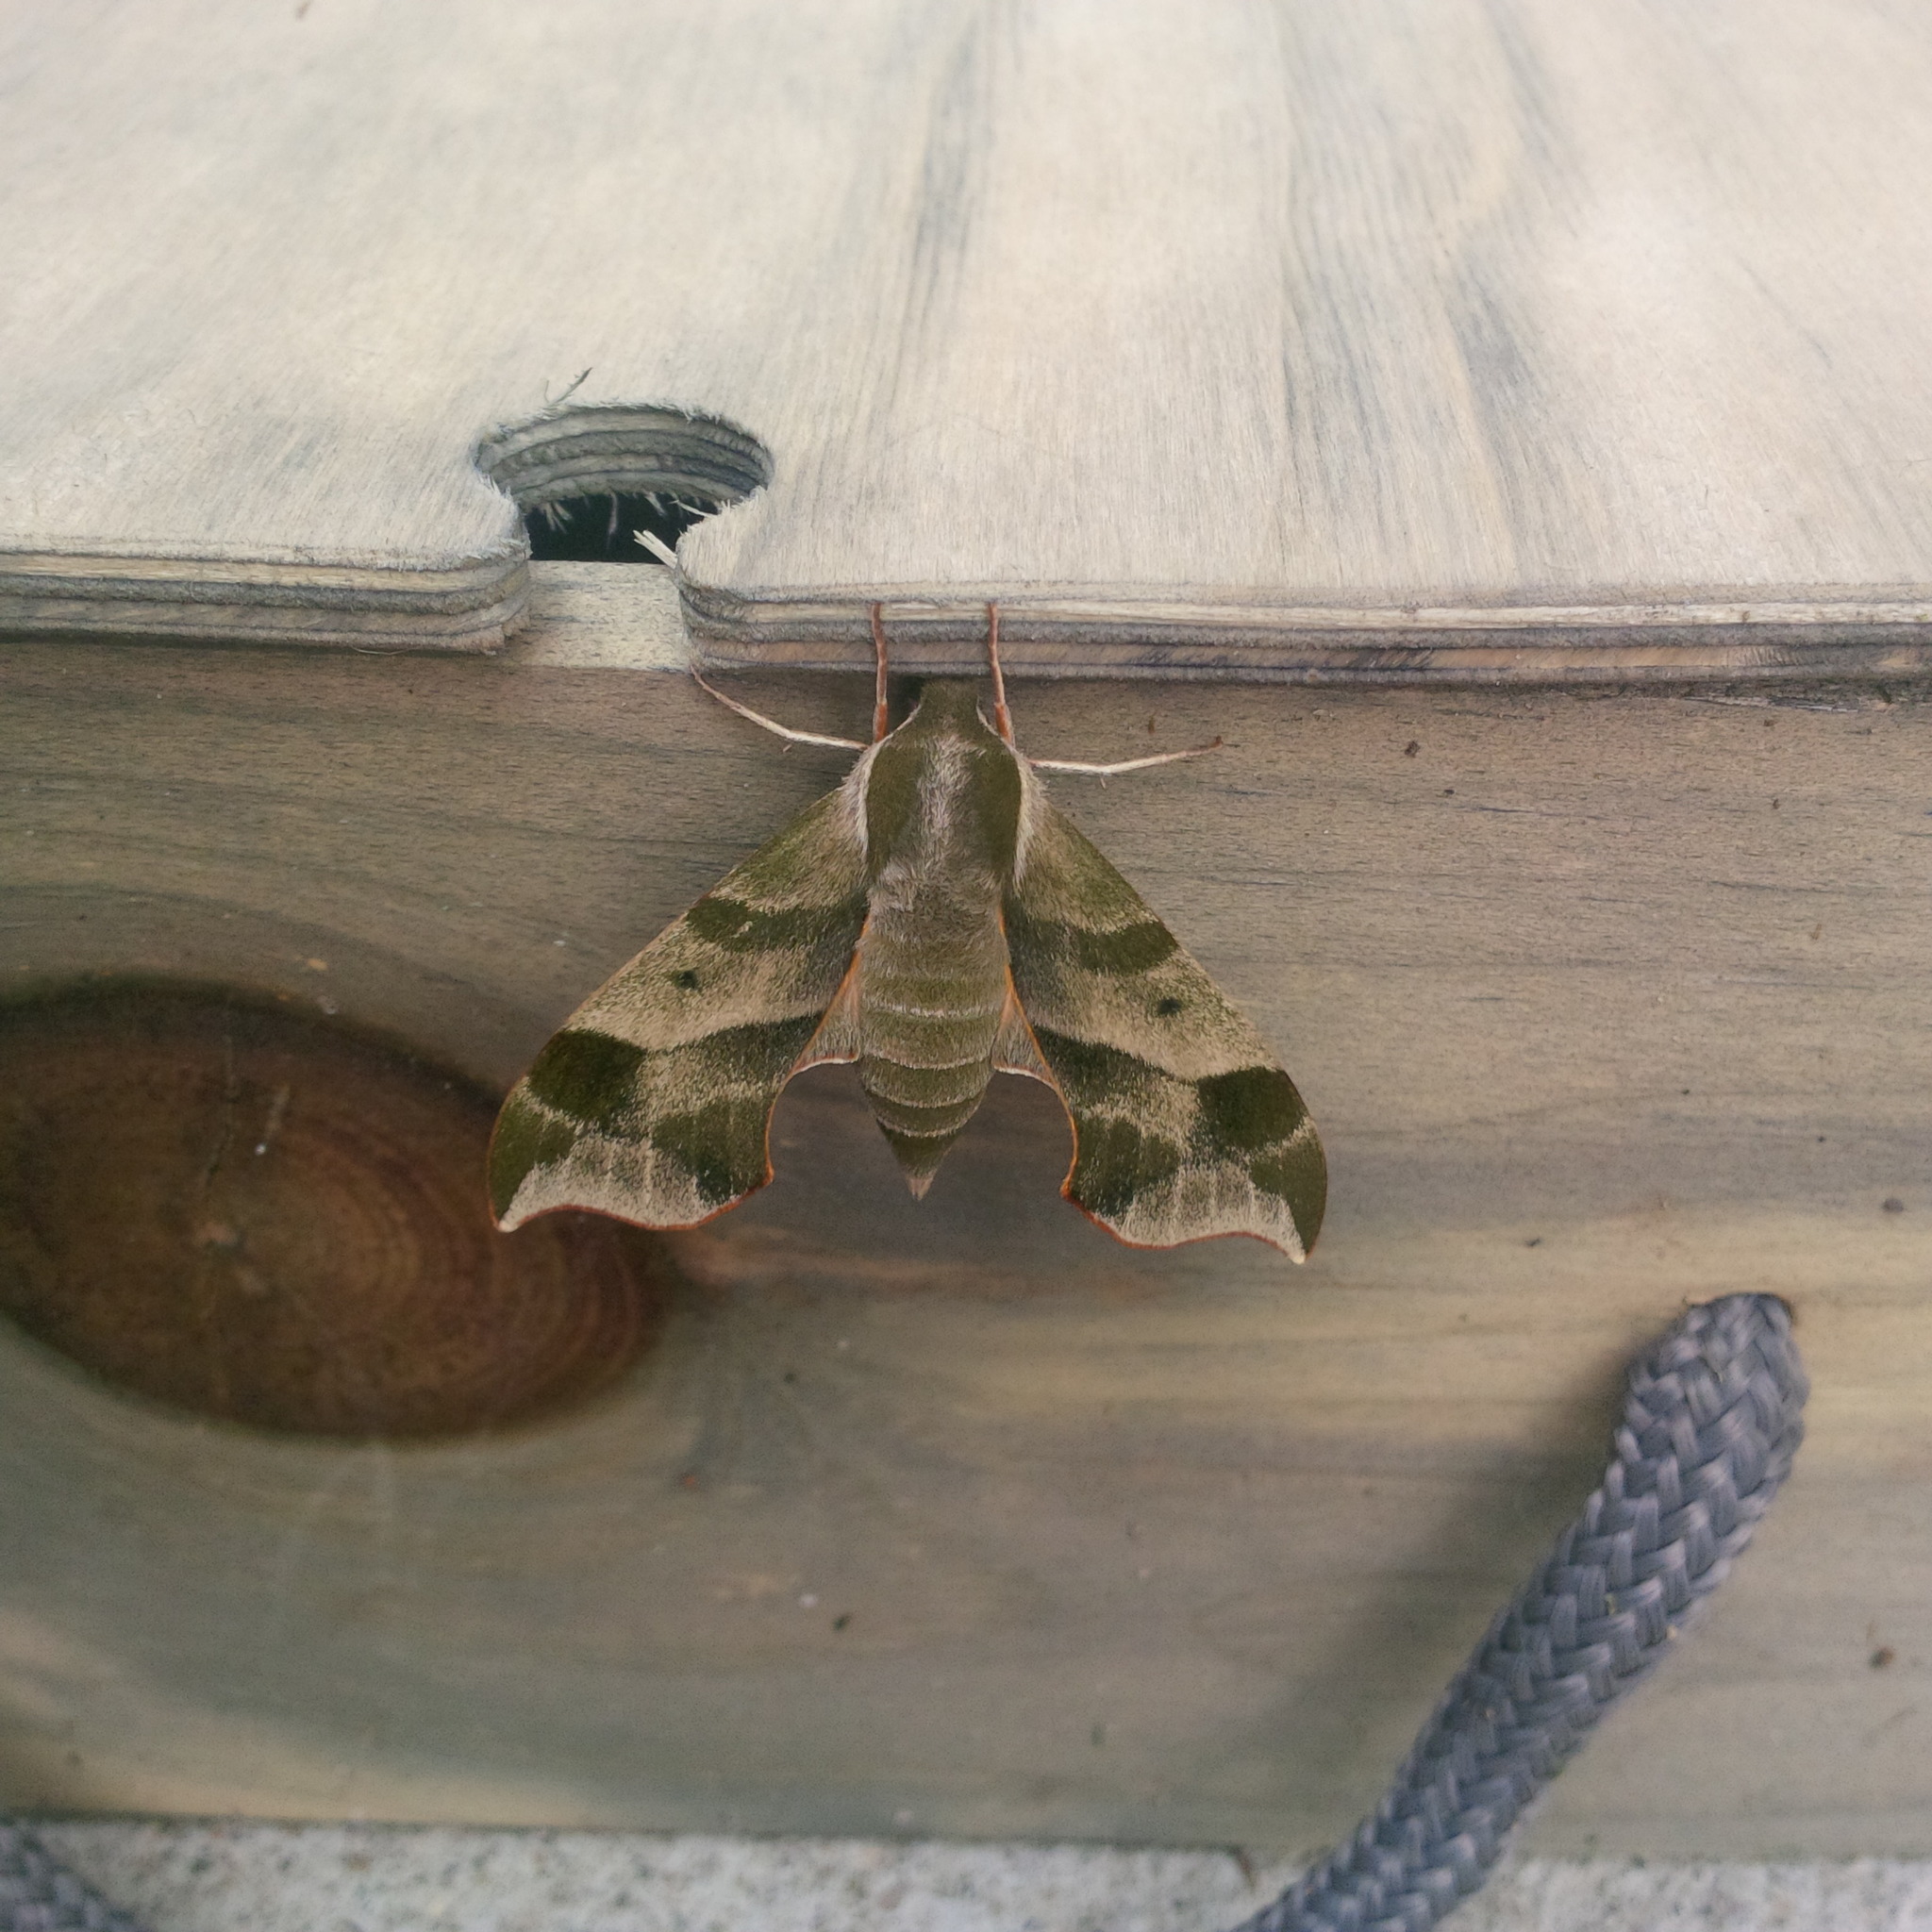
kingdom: Animalia
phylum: Arthropoda
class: Insecta
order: Lepidoptera
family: Sphingidae
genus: Darapsa
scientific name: Darapsa myron
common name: Hog sphinx
